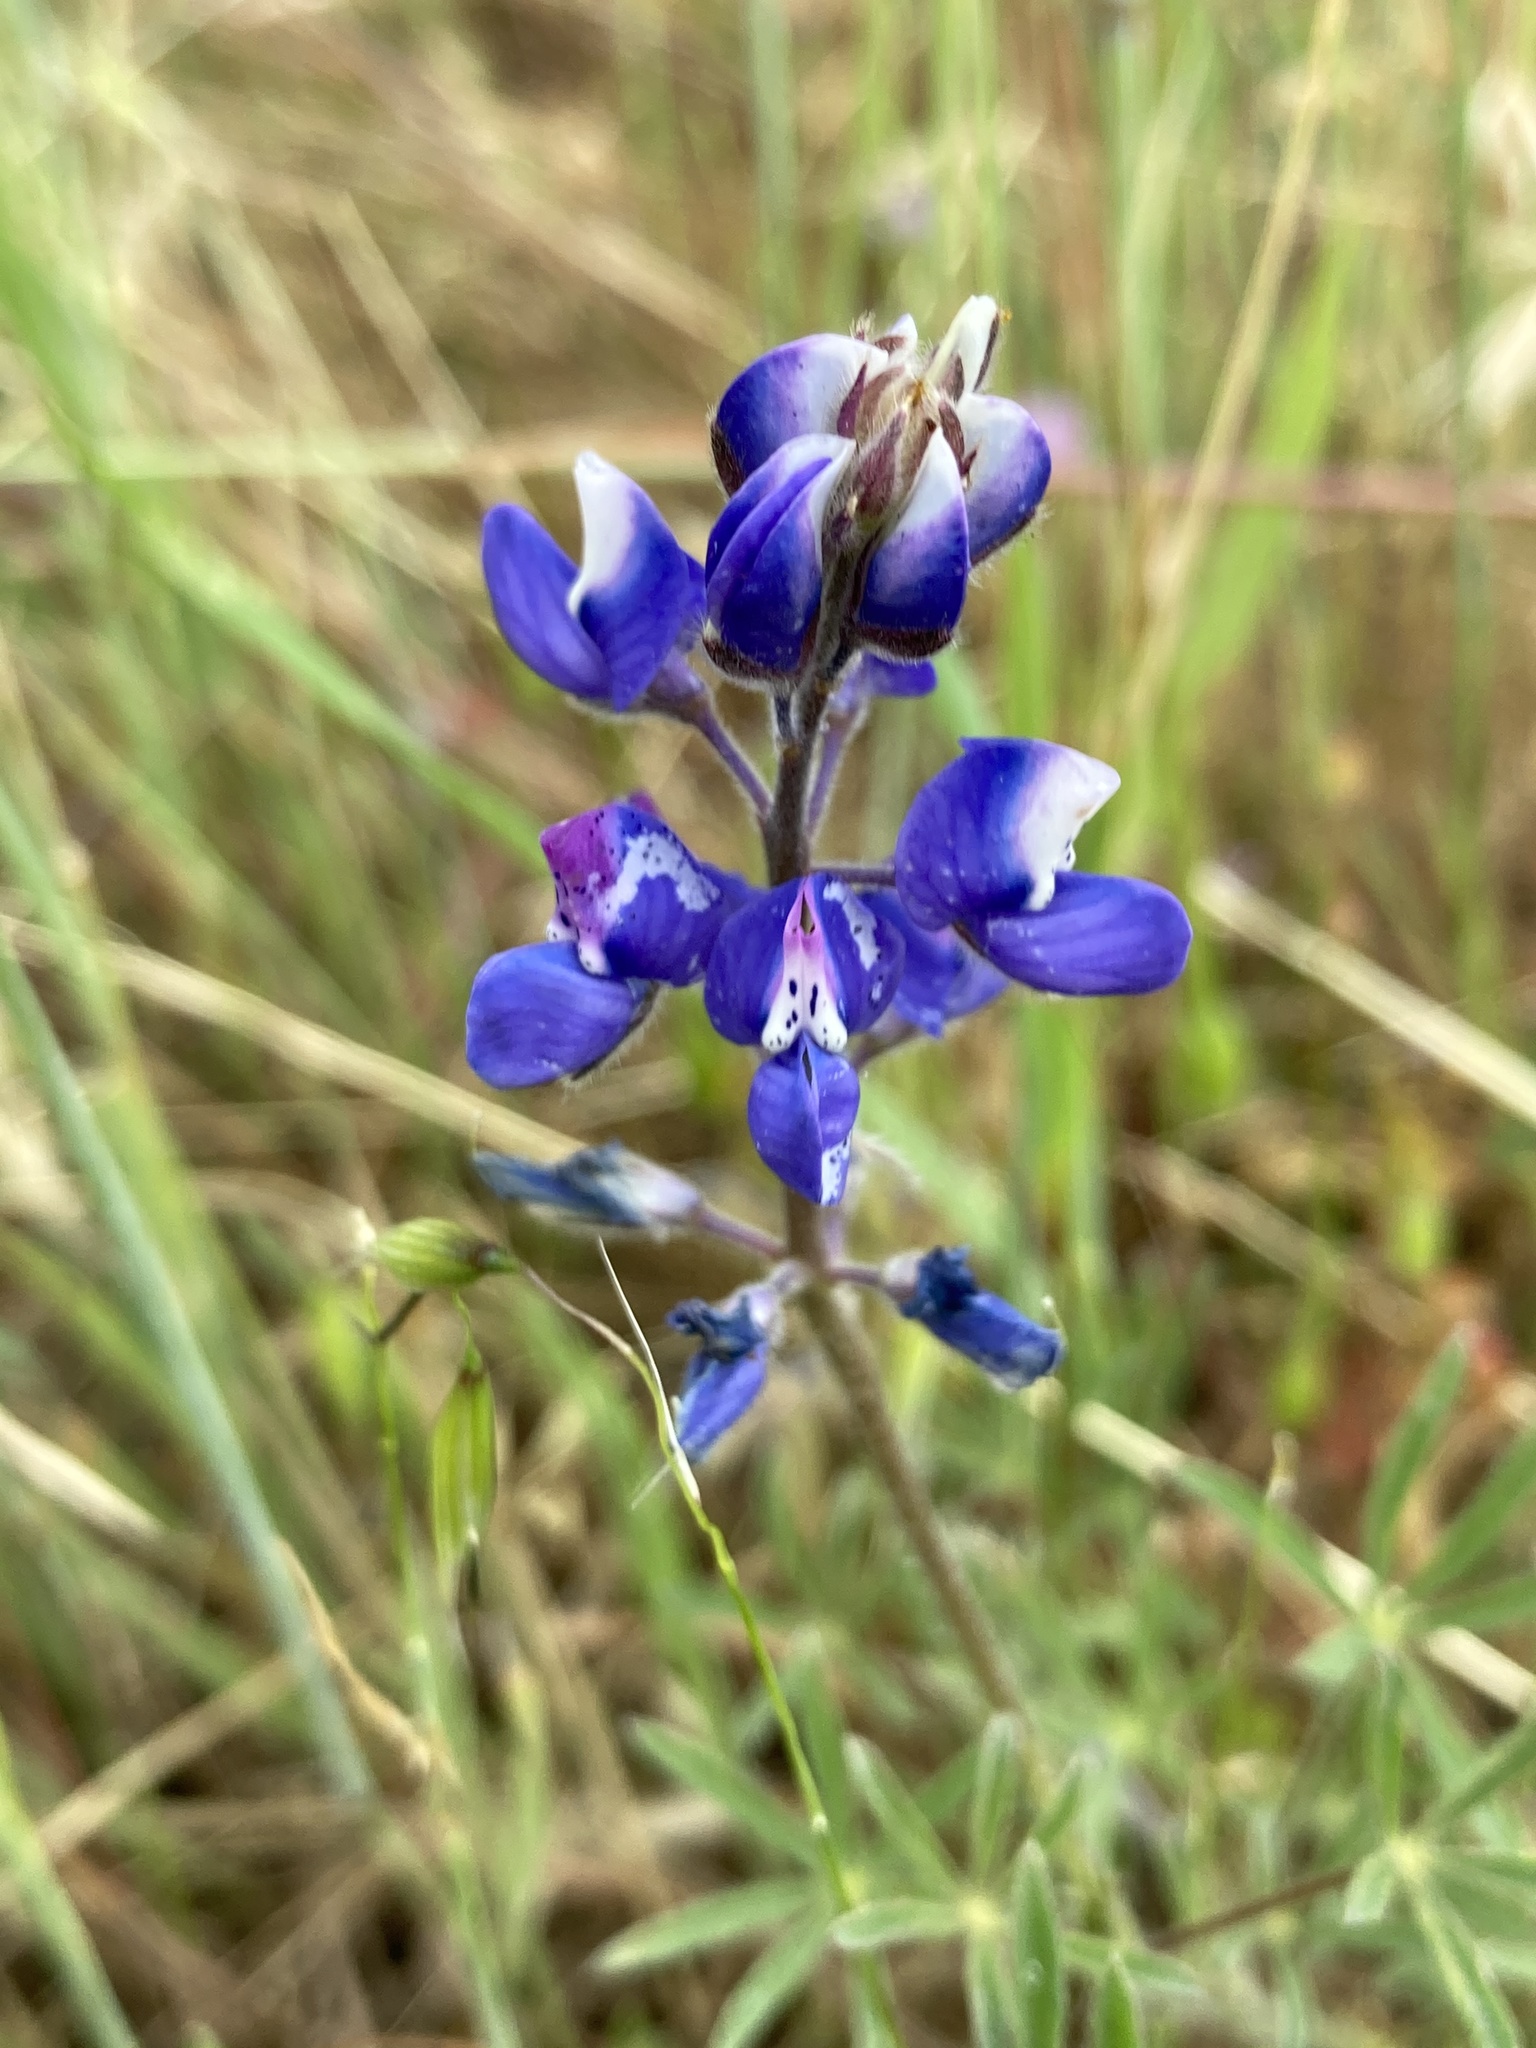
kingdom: Plantae
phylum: Tracheophyta
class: Magnoliopsida
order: Fabales
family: Fabaceae
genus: Lupinus
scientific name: Lupinus nanus
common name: Orean blue lupin
